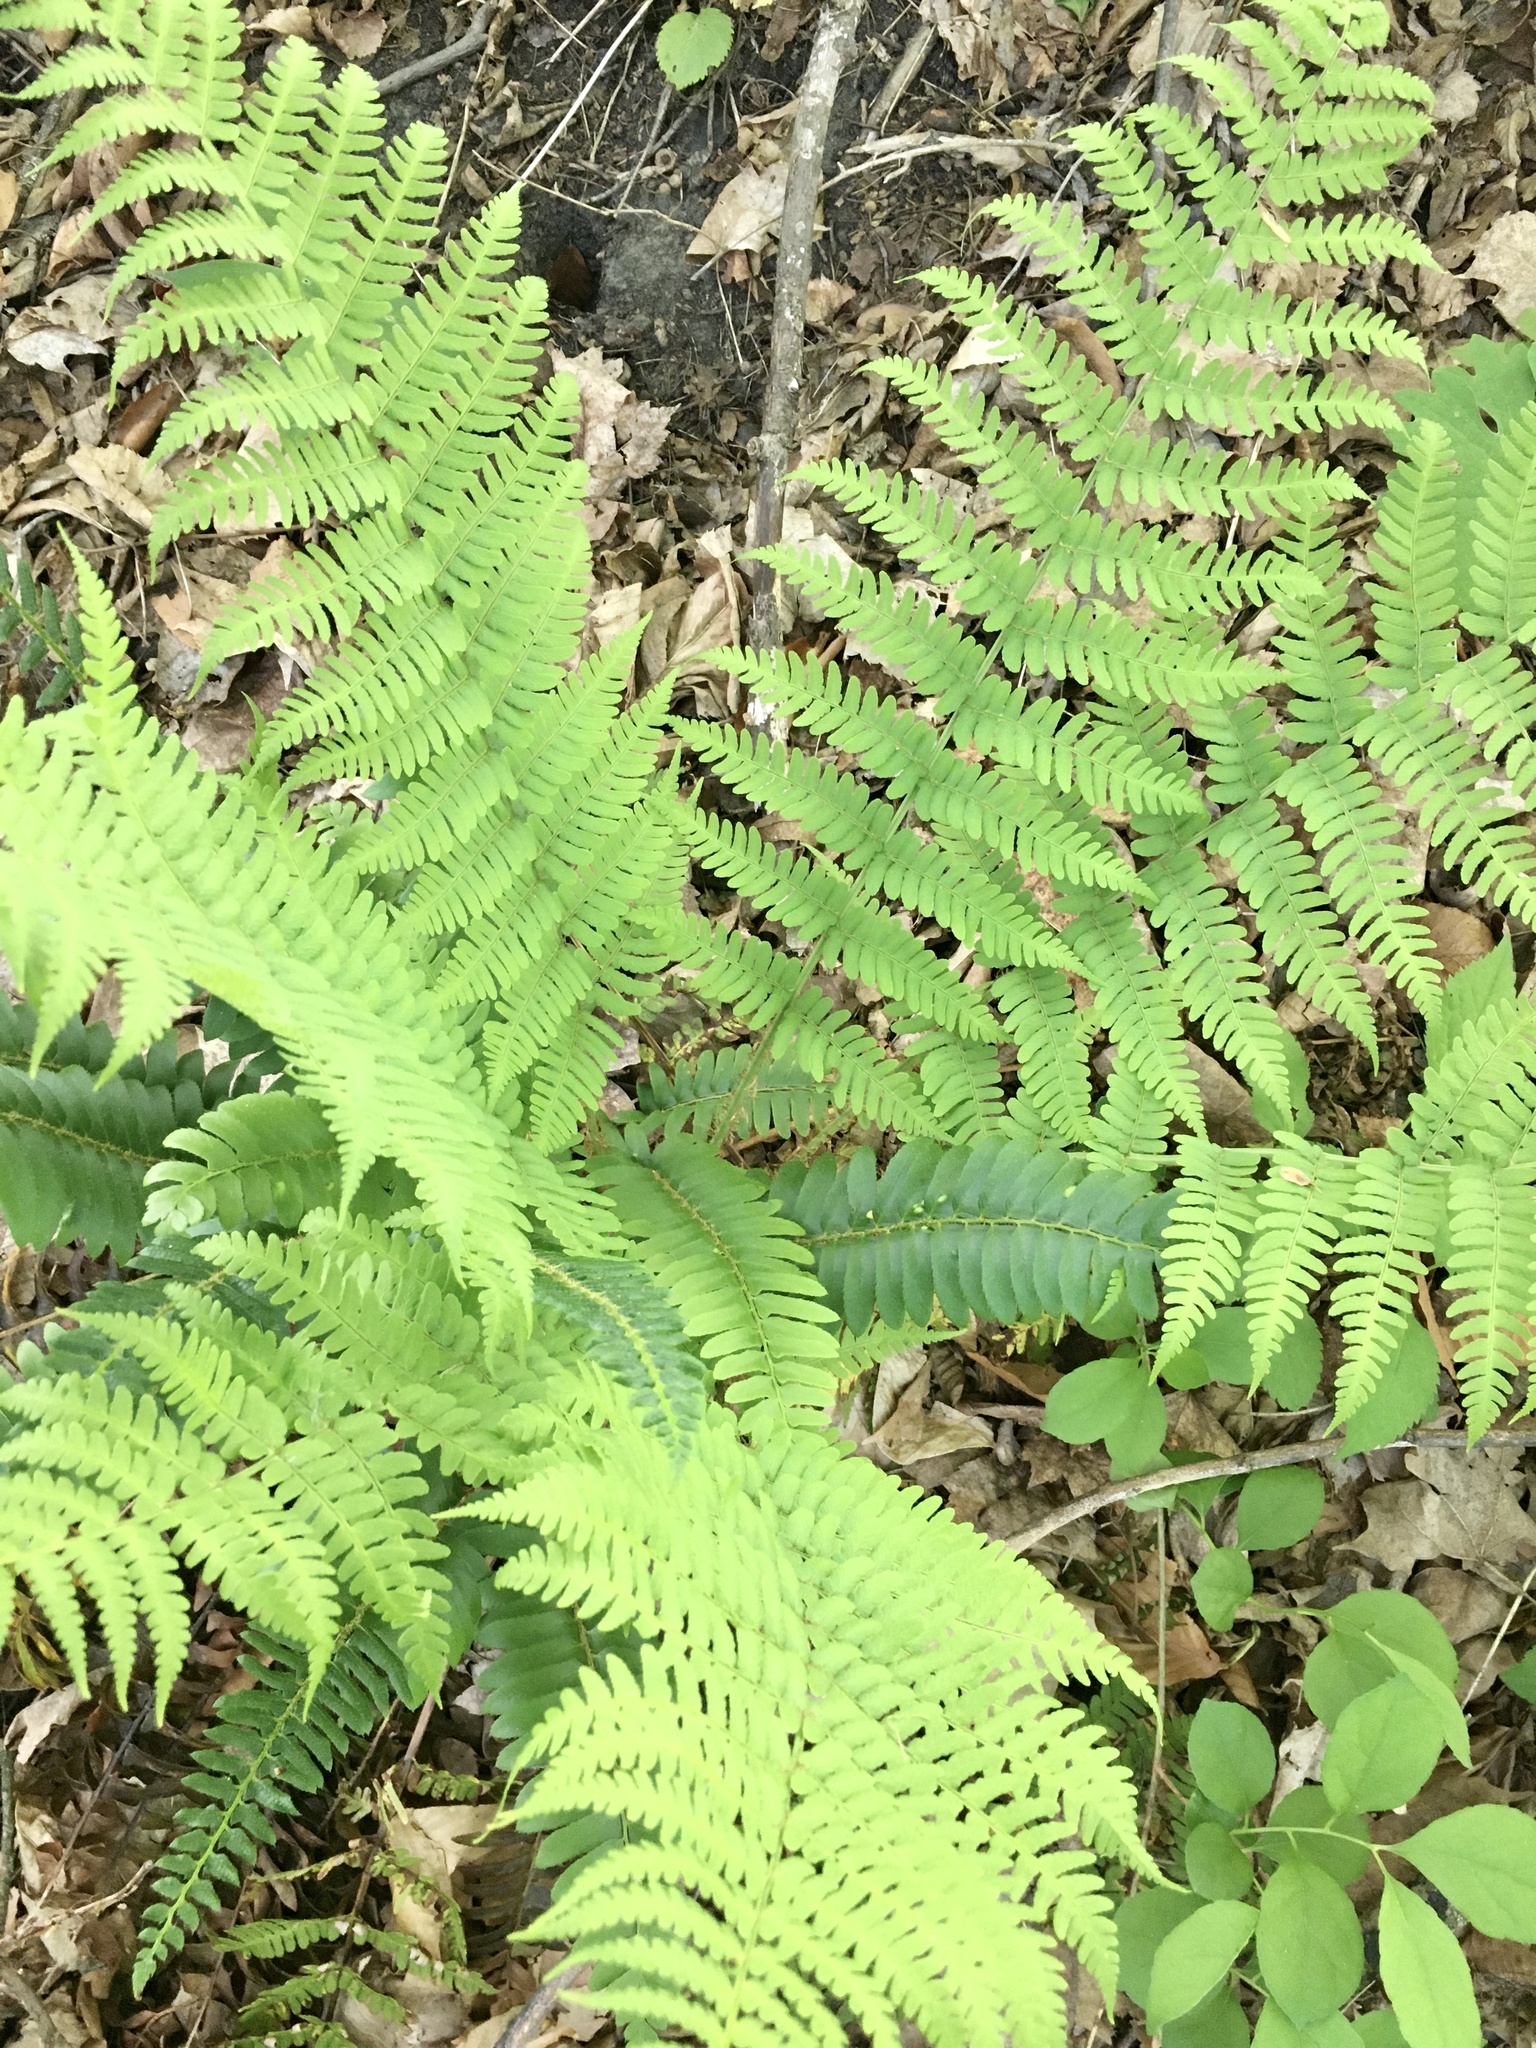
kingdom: Plantae
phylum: Tracheophyta
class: Polypodiopsida
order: Polypodiales
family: Dryopteridaceae
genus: Dryopteris
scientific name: Dryopteris marginalis
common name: Marginal wood fern
